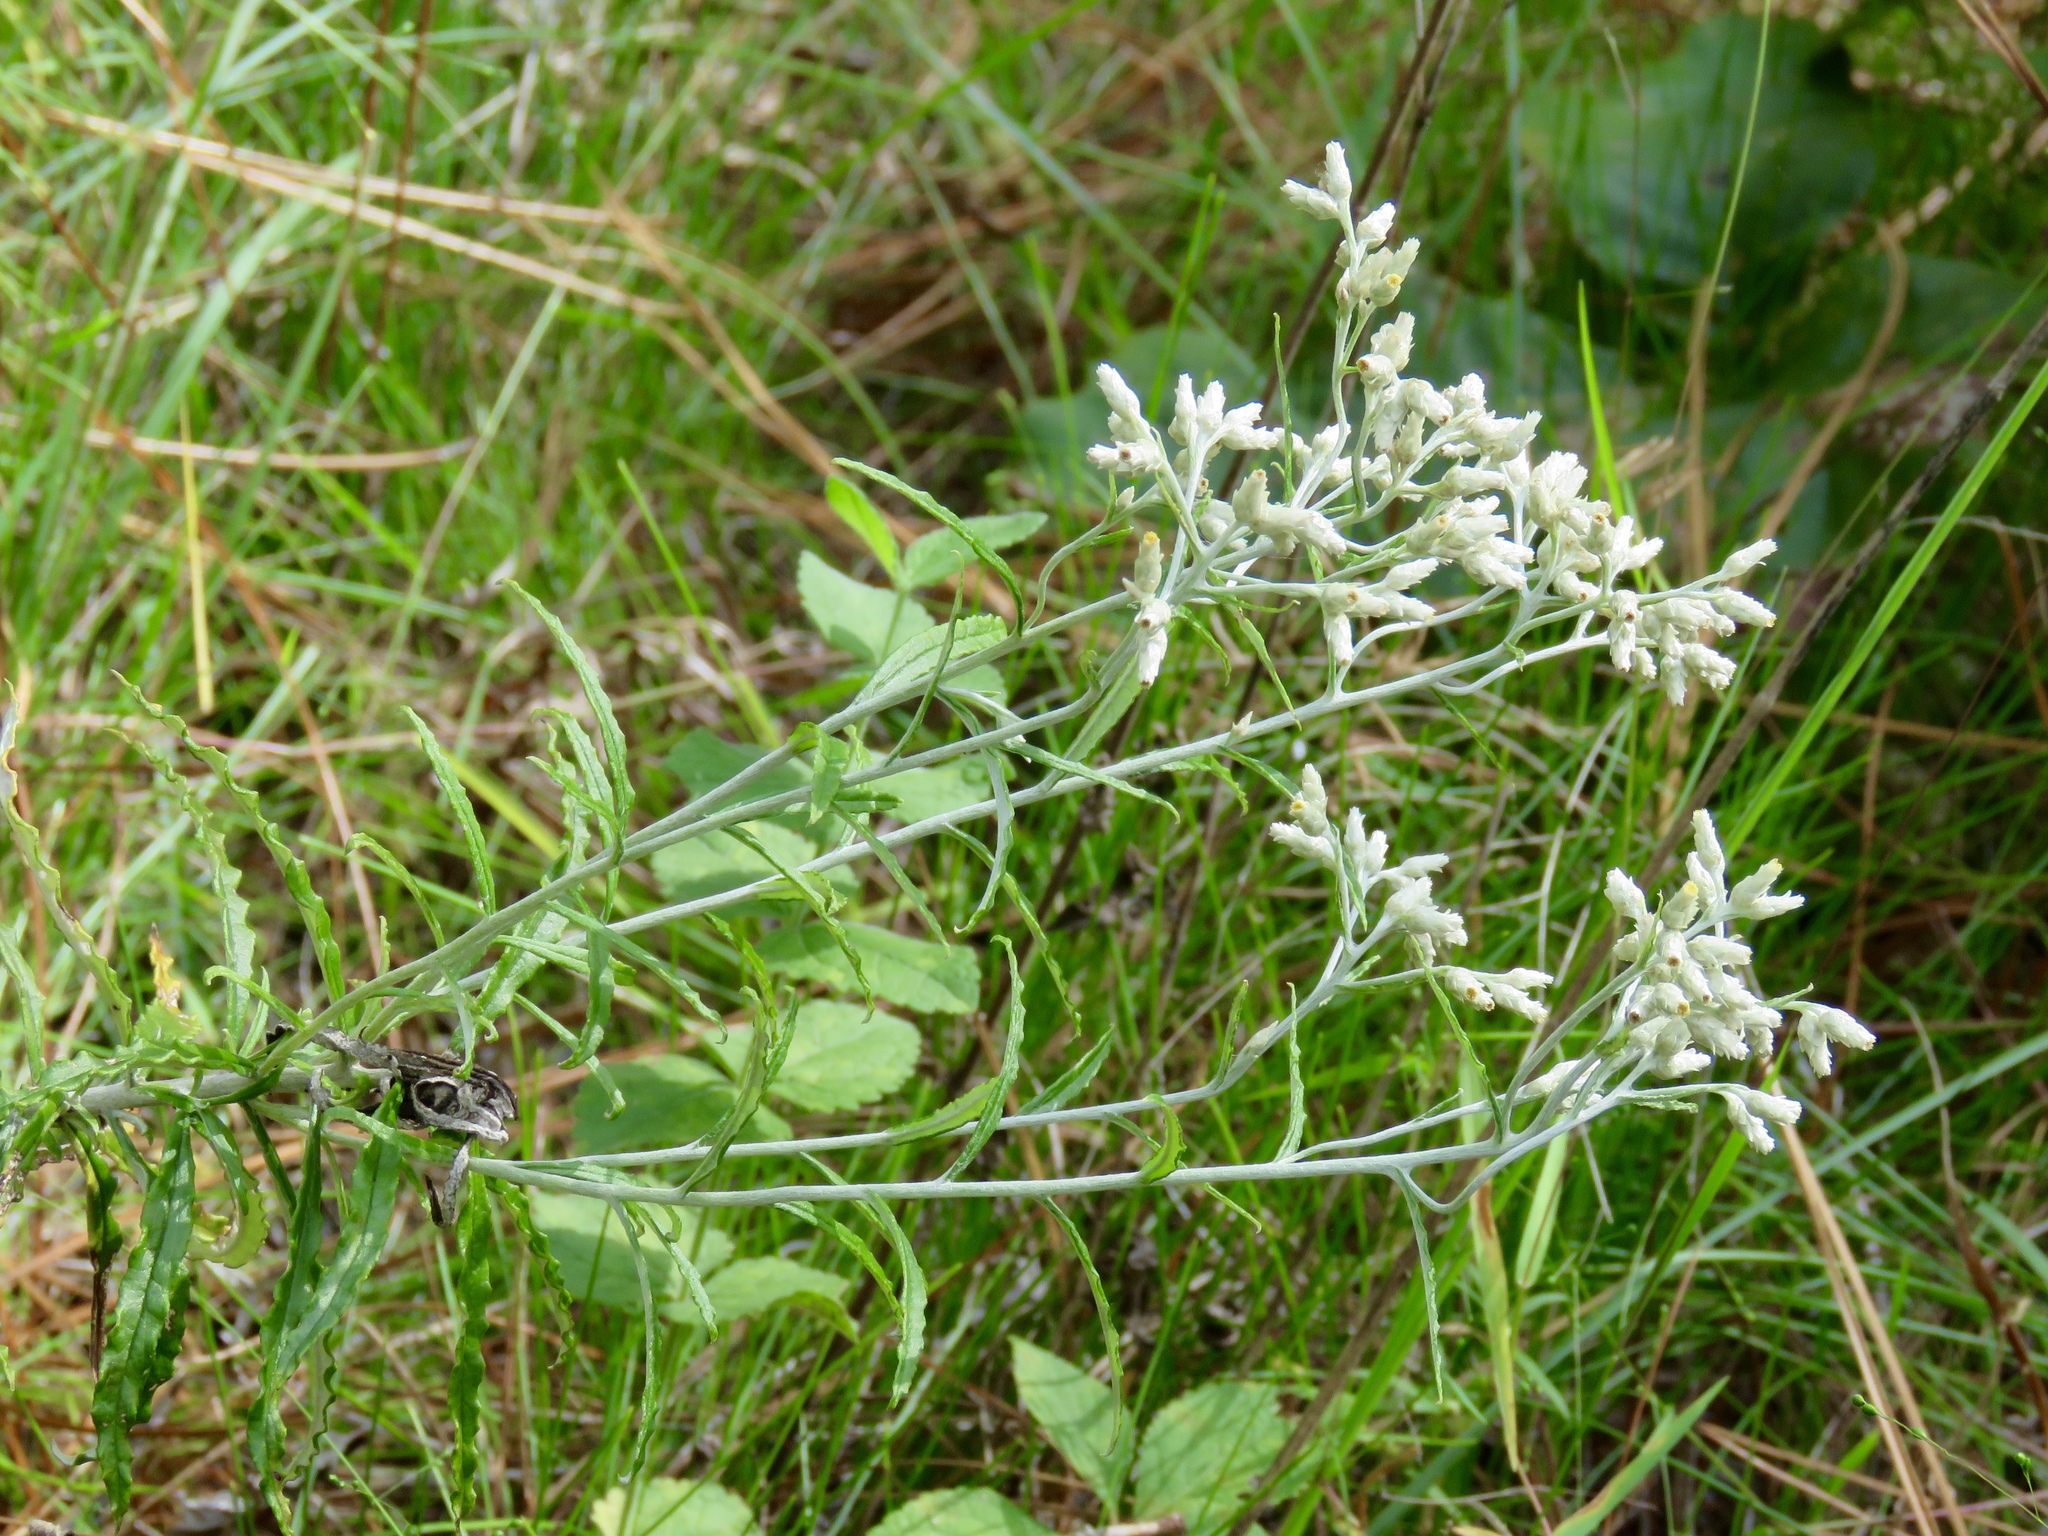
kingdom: Plantae
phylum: Tracheophyta
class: Magnoliopsida
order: Asterales
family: Asteraceae
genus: Pseudognaphalium
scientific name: Pseudognaphalium obtusifolium
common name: Eastern rabbit-tobacco
